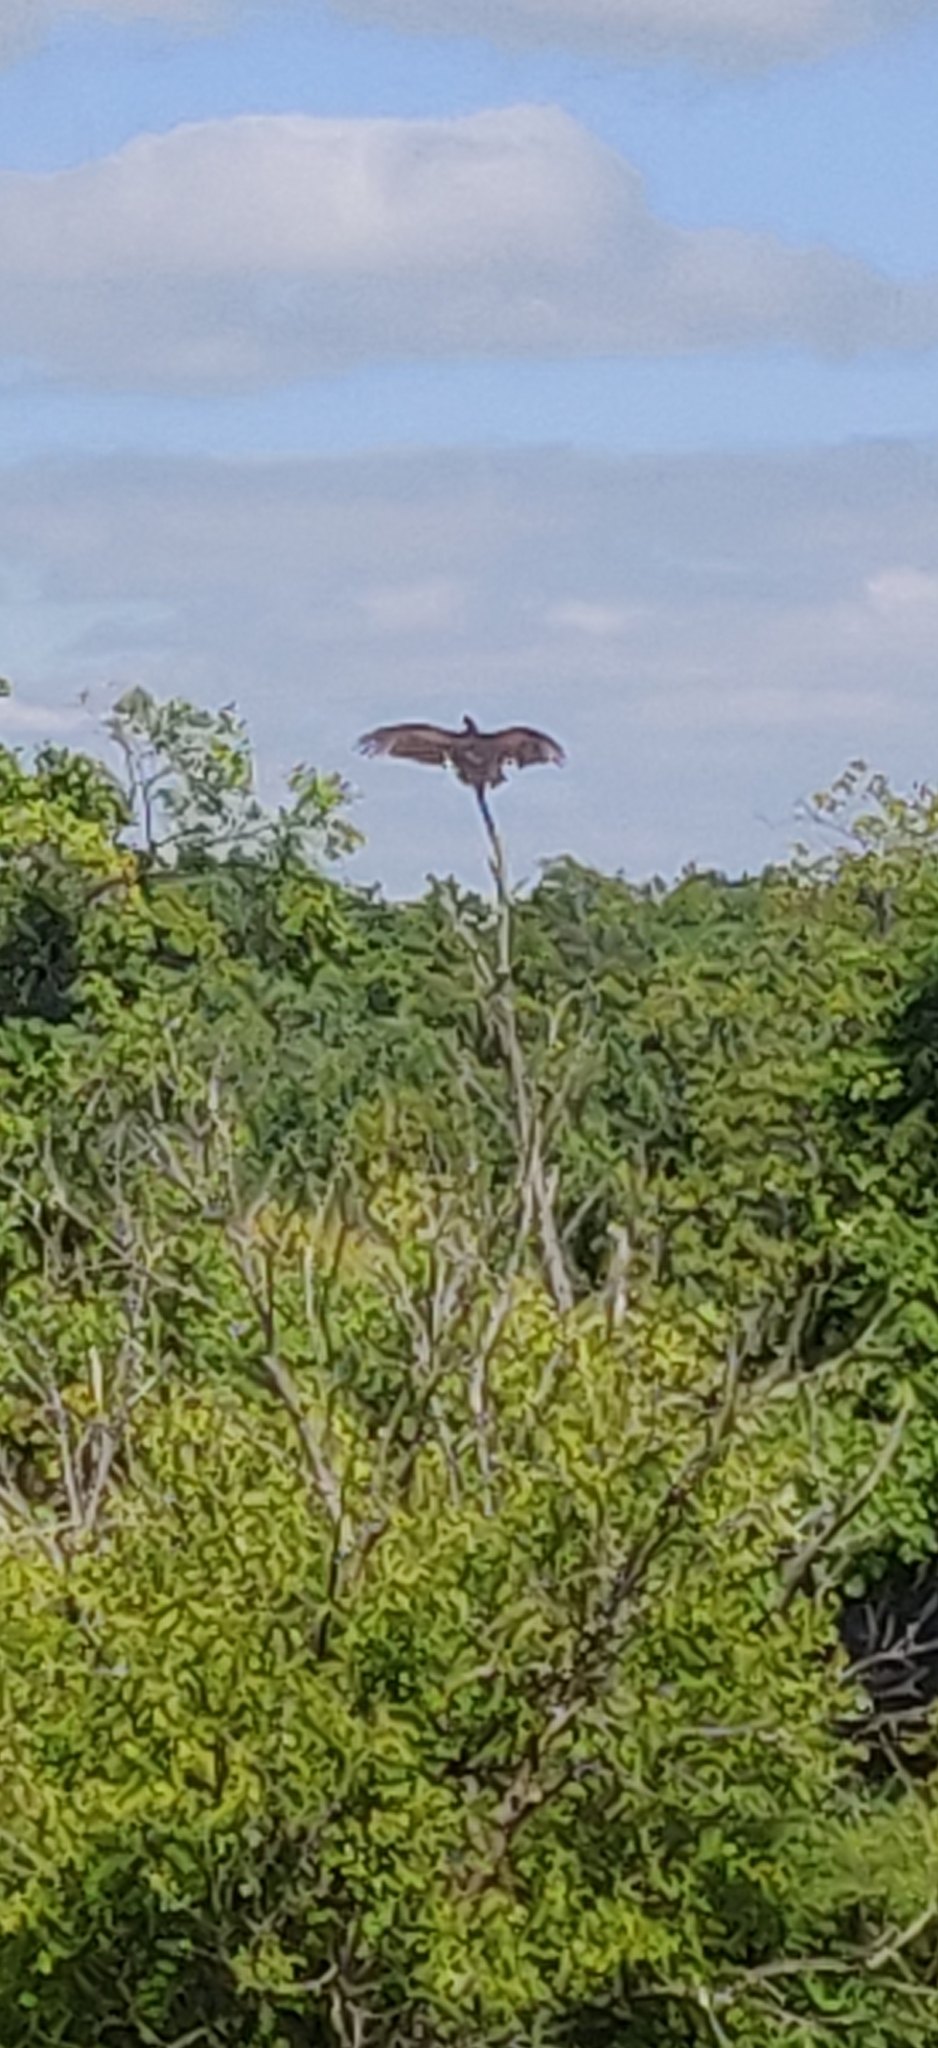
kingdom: Animalia
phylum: Chordata
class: Aves
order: Accipitriformes
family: Cathartidae
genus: Cathartes
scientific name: Cathartes aura
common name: Turkey vulture
